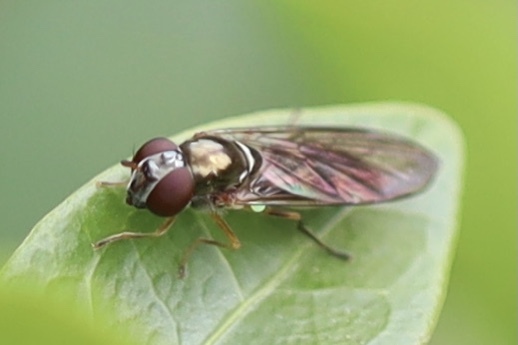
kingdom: Animalia
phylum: Arthropoda
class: Insecta
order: Diptera
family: Syrphidae
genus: Melanostoma
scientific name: Melanostoma mellina
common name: Hover fly
